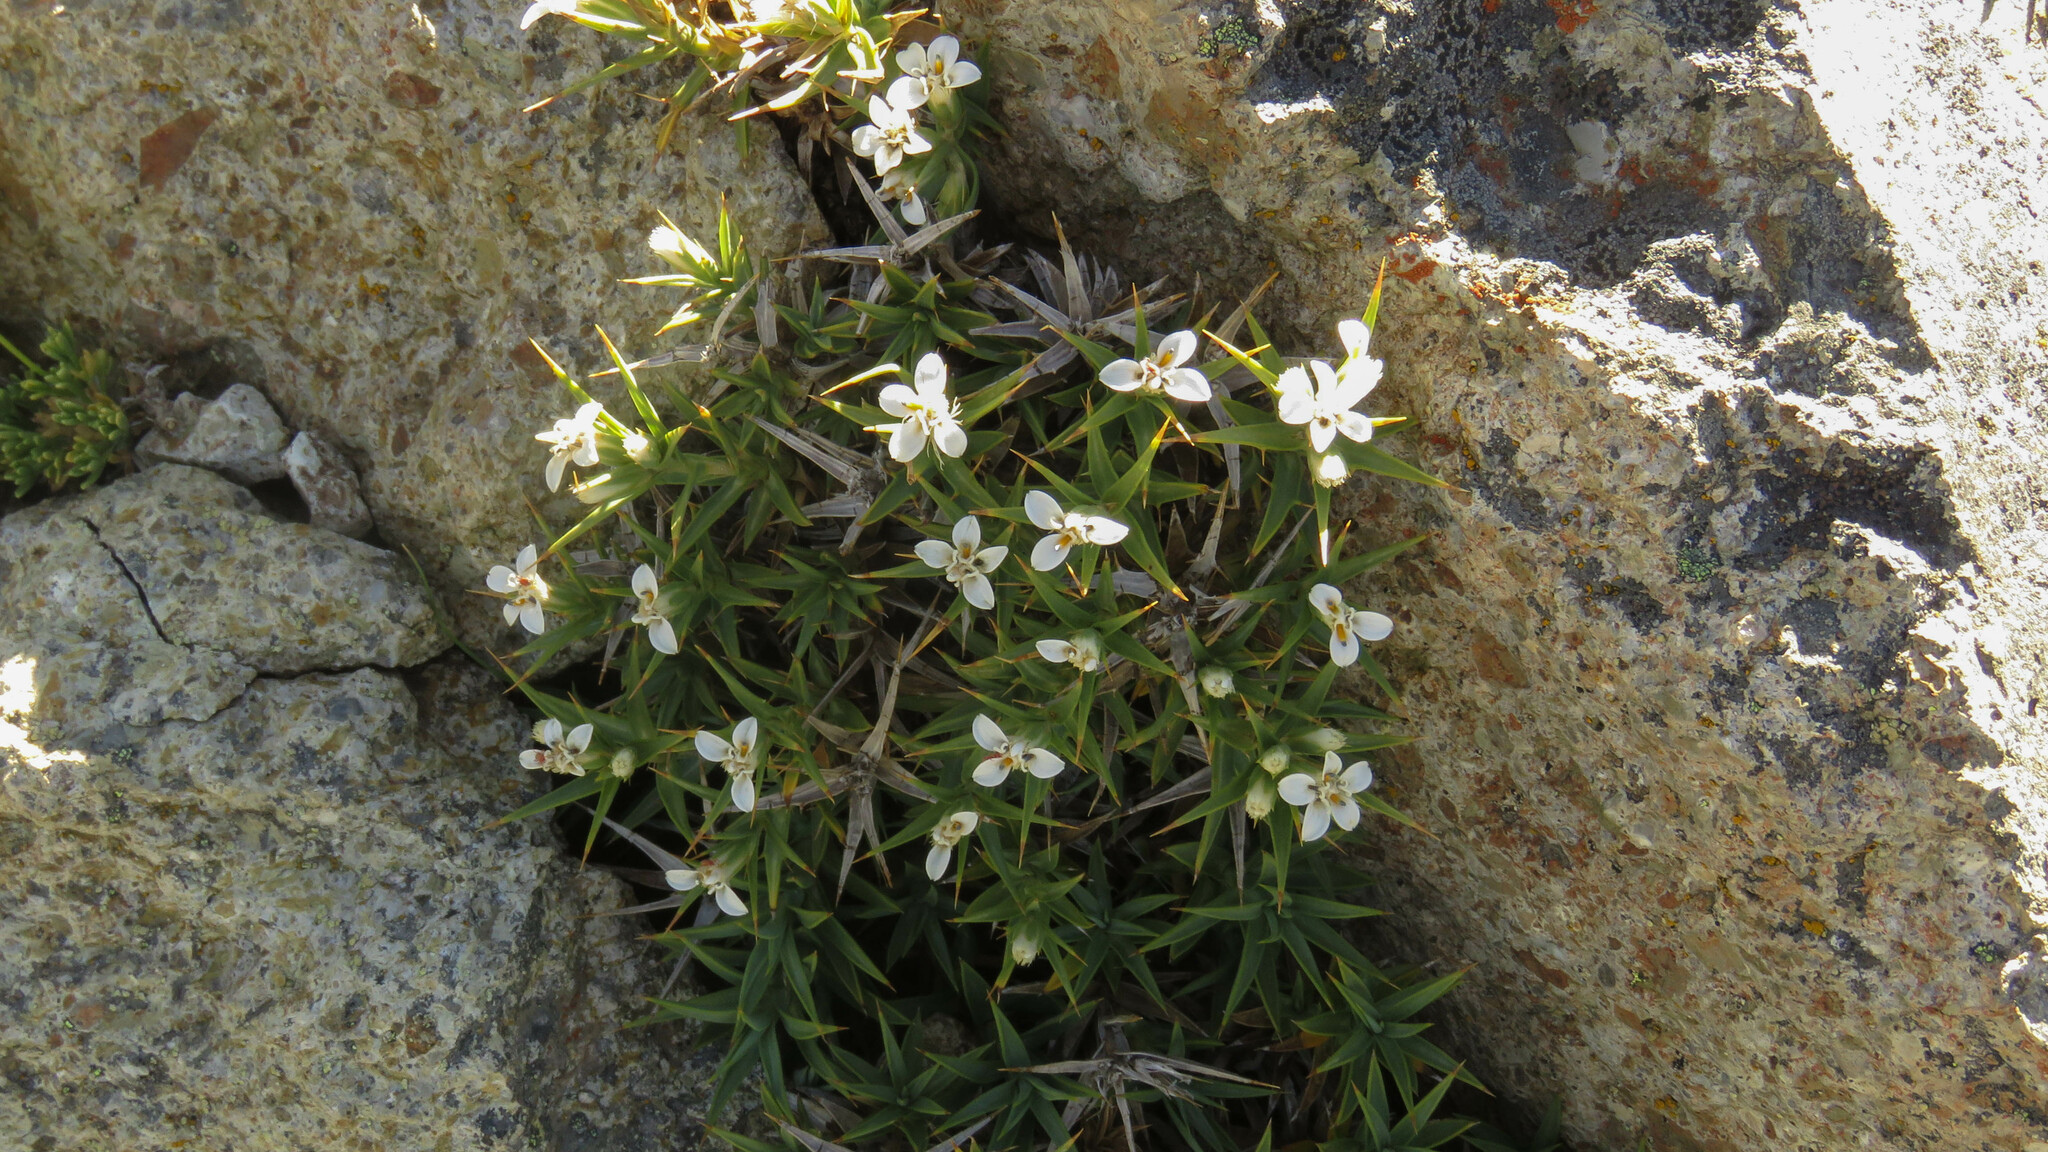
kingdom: Plantae
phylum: Tracheophyta
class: Magnoliopsida
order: Asterales
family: Asteraceae
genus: Nassauvia
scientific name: Nassauvia aculeata
